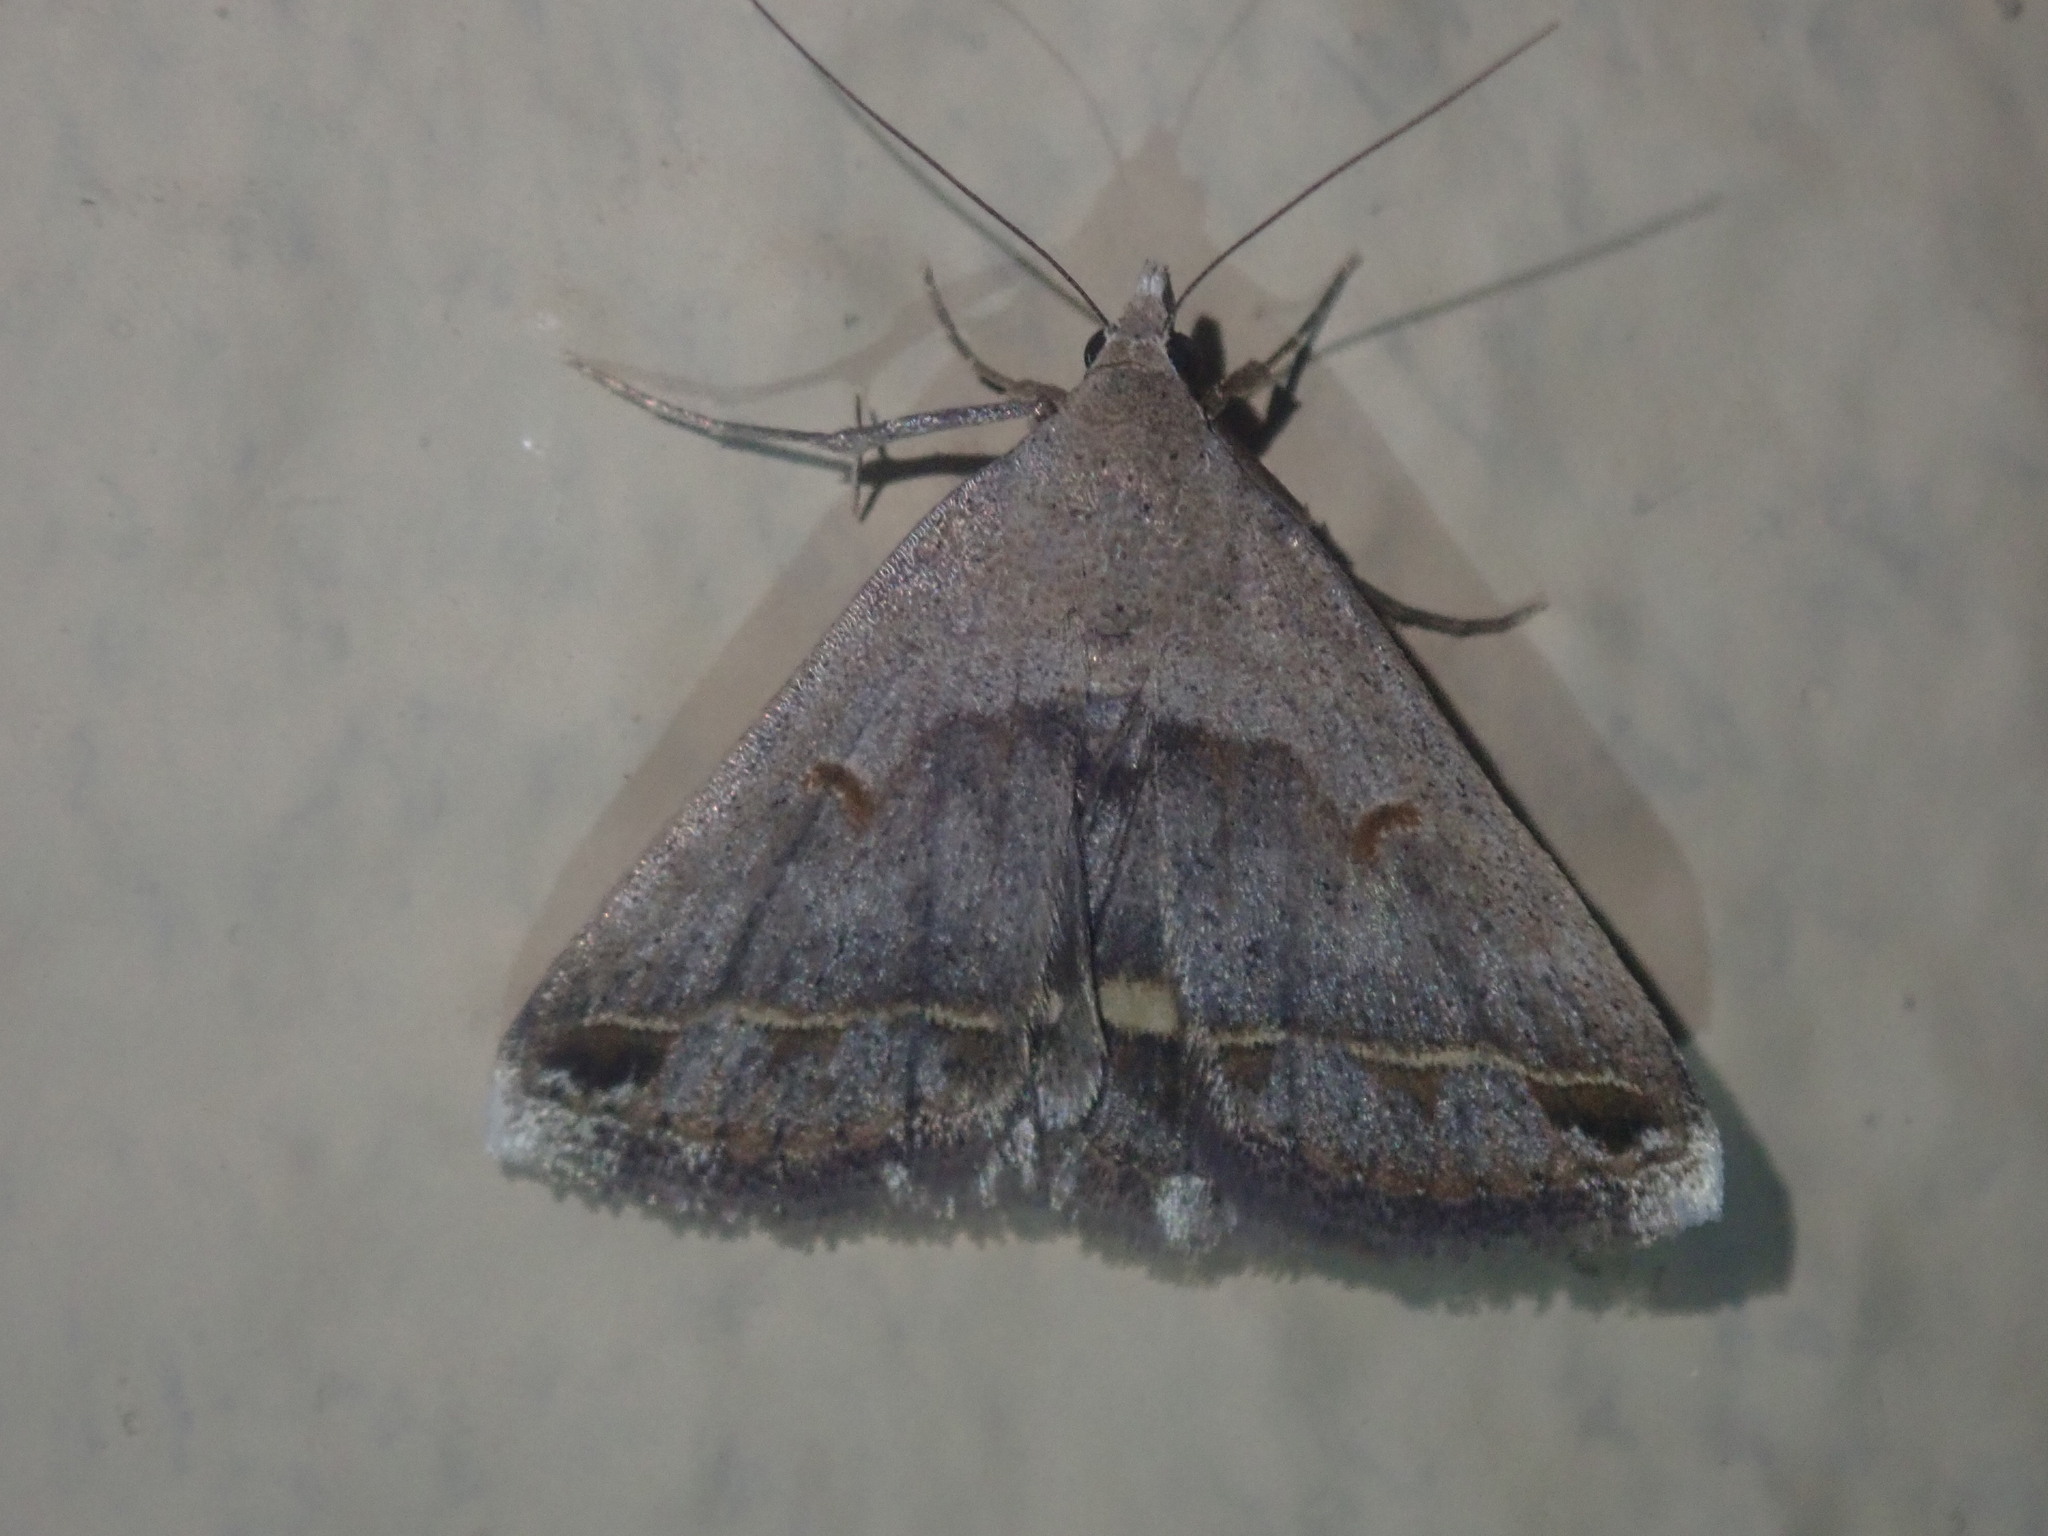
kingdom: Animalia
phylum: Arthropoda
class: Insecta
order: Lepidoptera
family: Erebidae
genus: Acantholipes
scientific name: Acantholipes trimeni
